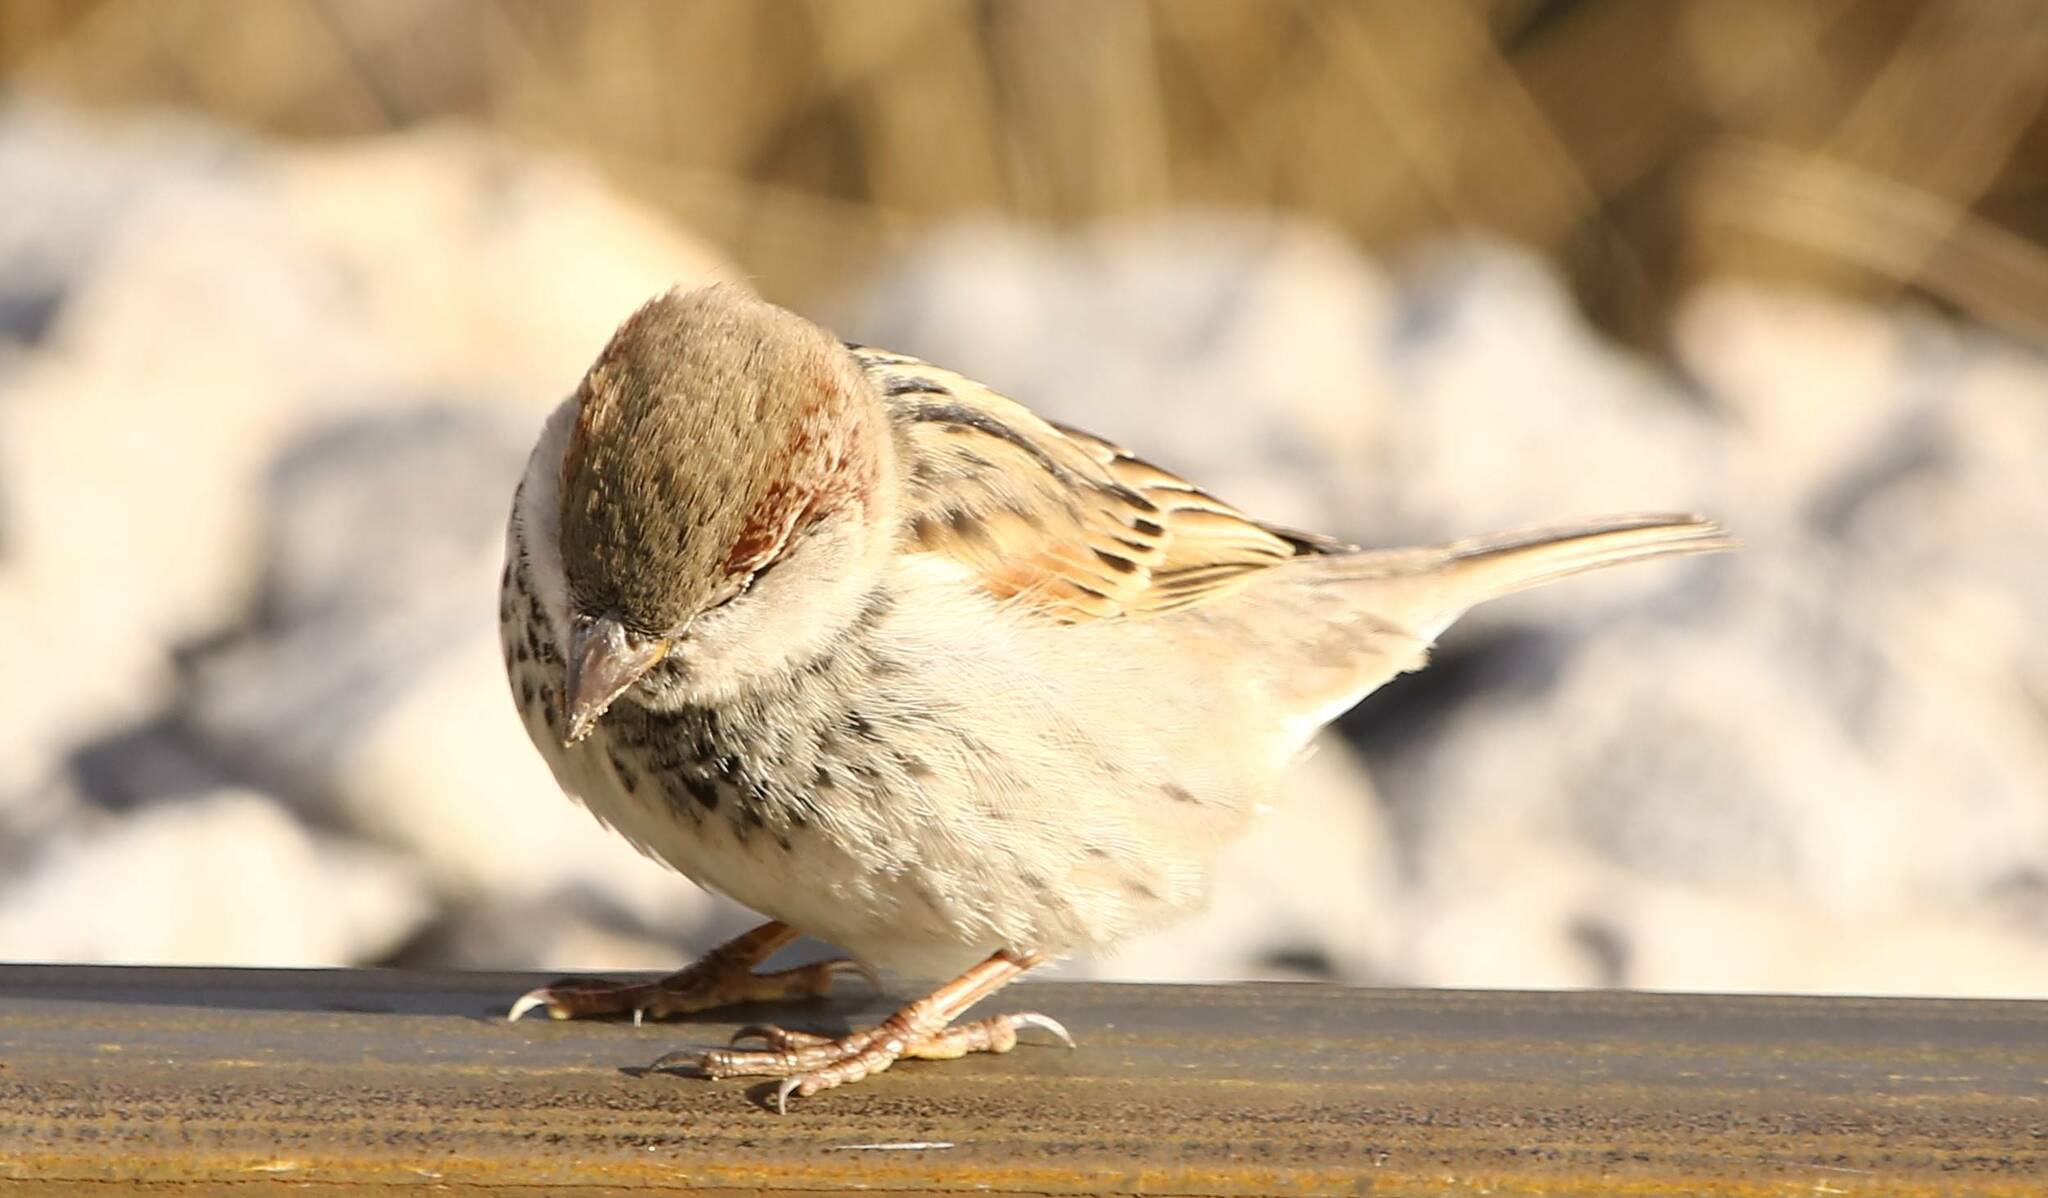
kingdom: Animalia
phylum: Chordata
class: Aves
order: Passeriformes
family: Passeridae
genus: Passer
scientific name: Passer domesticus
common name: House sparrow
